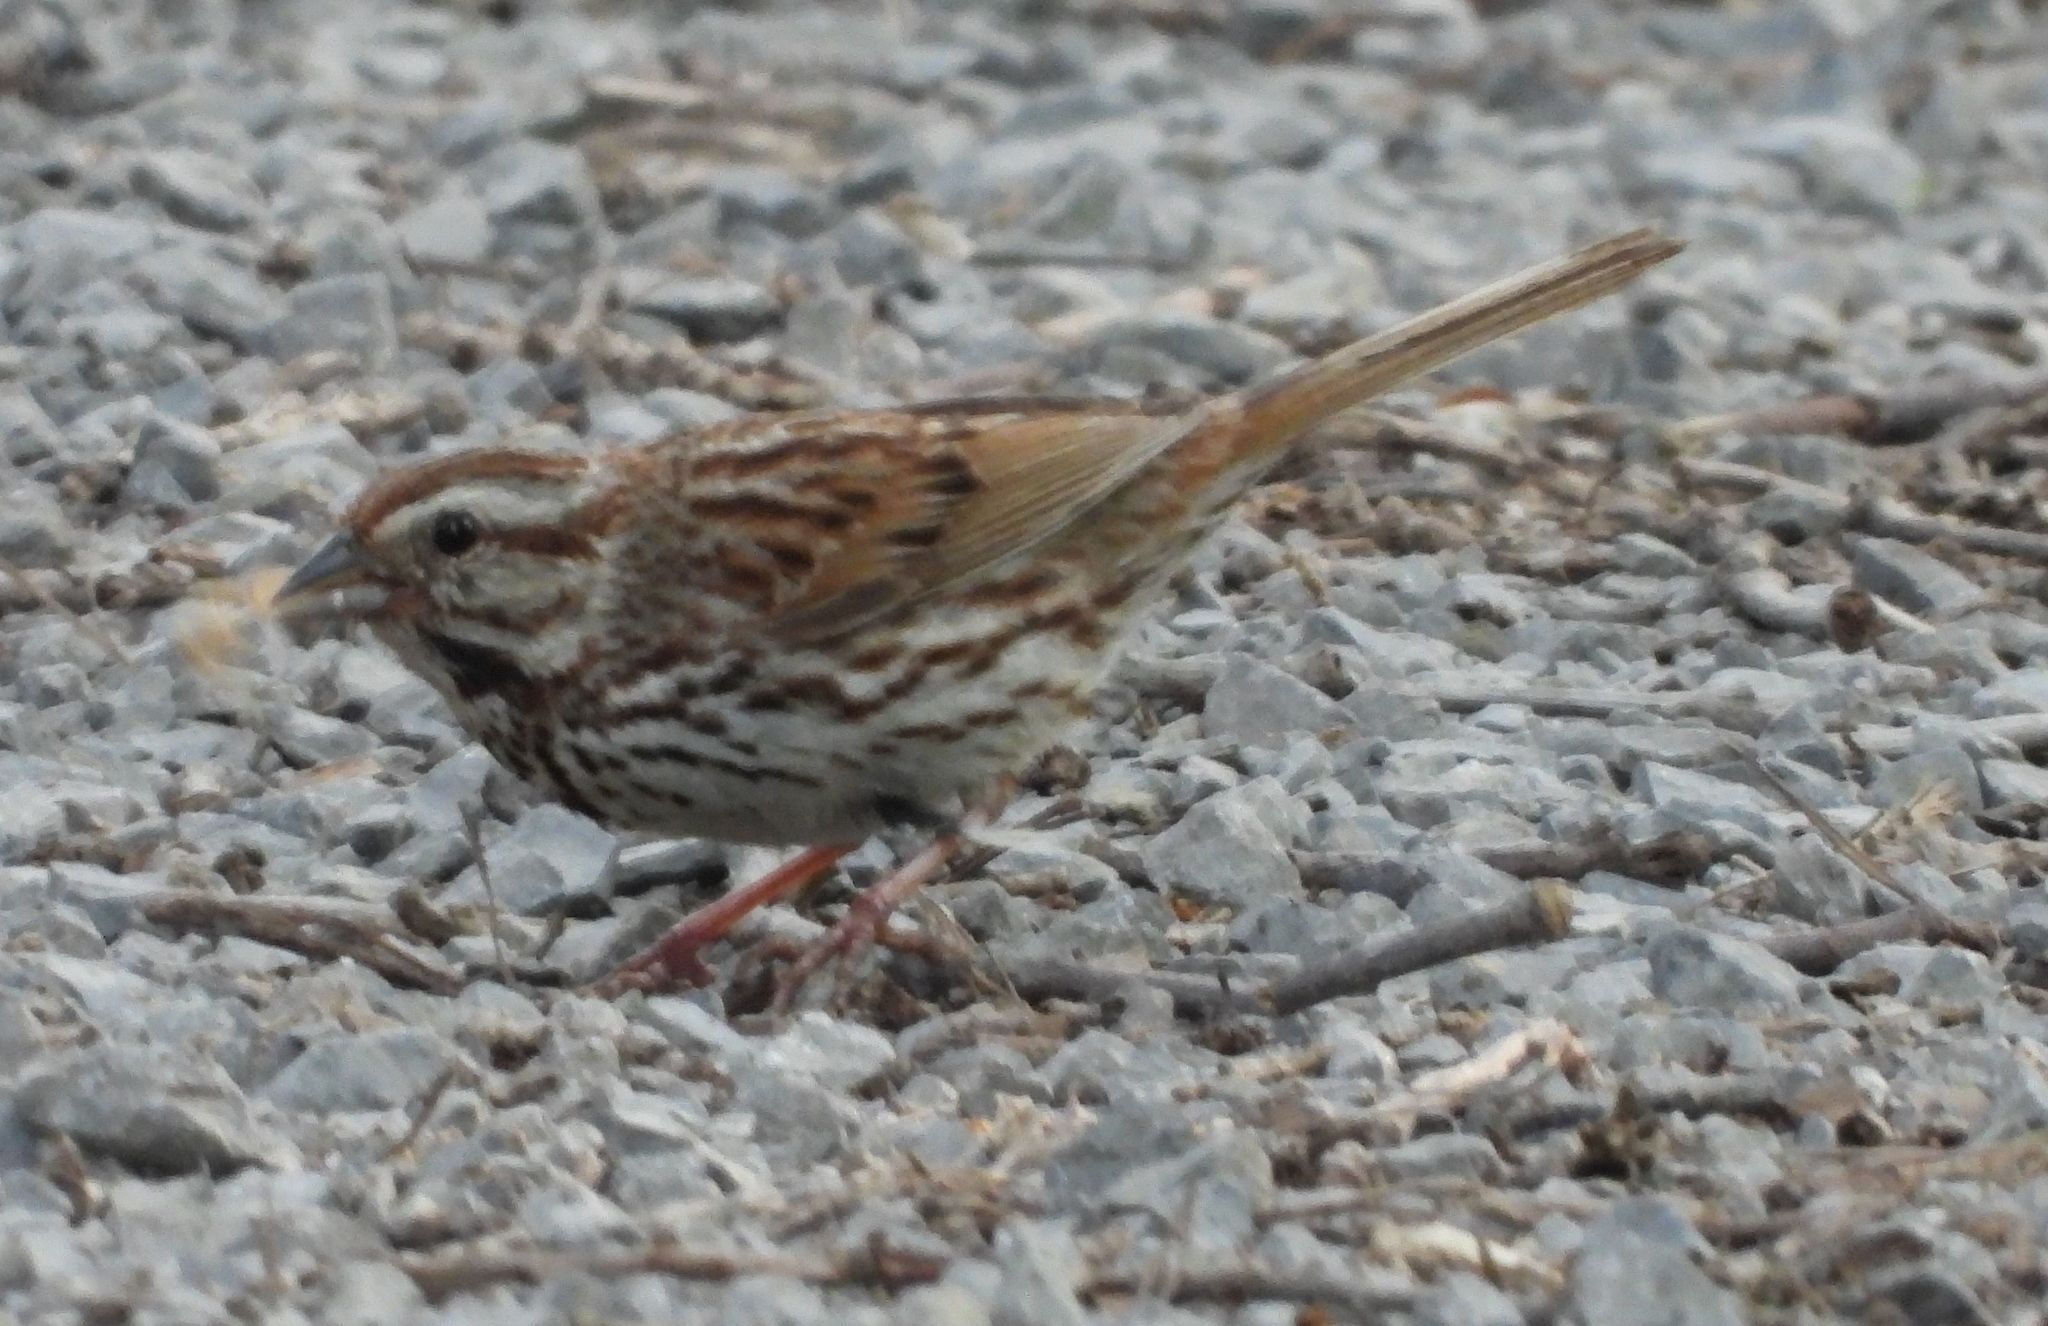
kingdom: Animalia
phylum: Chordata
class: Aves
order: Passeriformes
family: Passerellidae
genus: Melospiza
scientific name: Melospiza melodia
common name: Song sparrow
